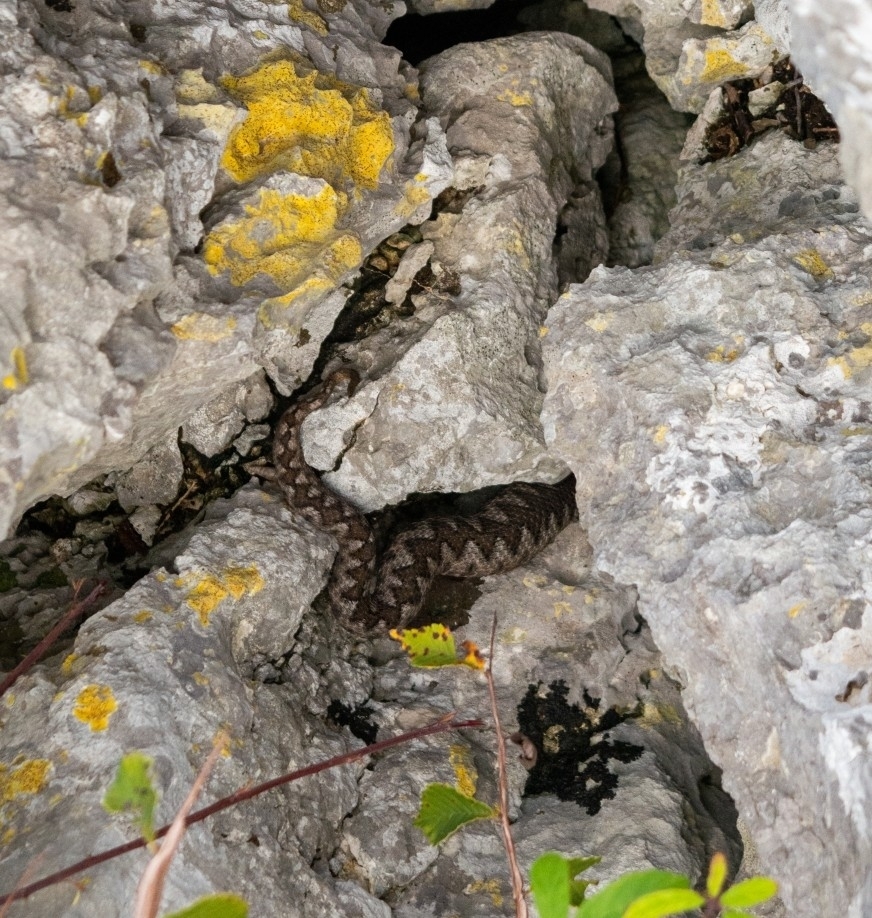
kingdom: Animalia
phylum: Chordata
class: Squamata
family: Viperidae
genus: Vipera
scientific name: Vipera ammodytes
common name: Sand viper
